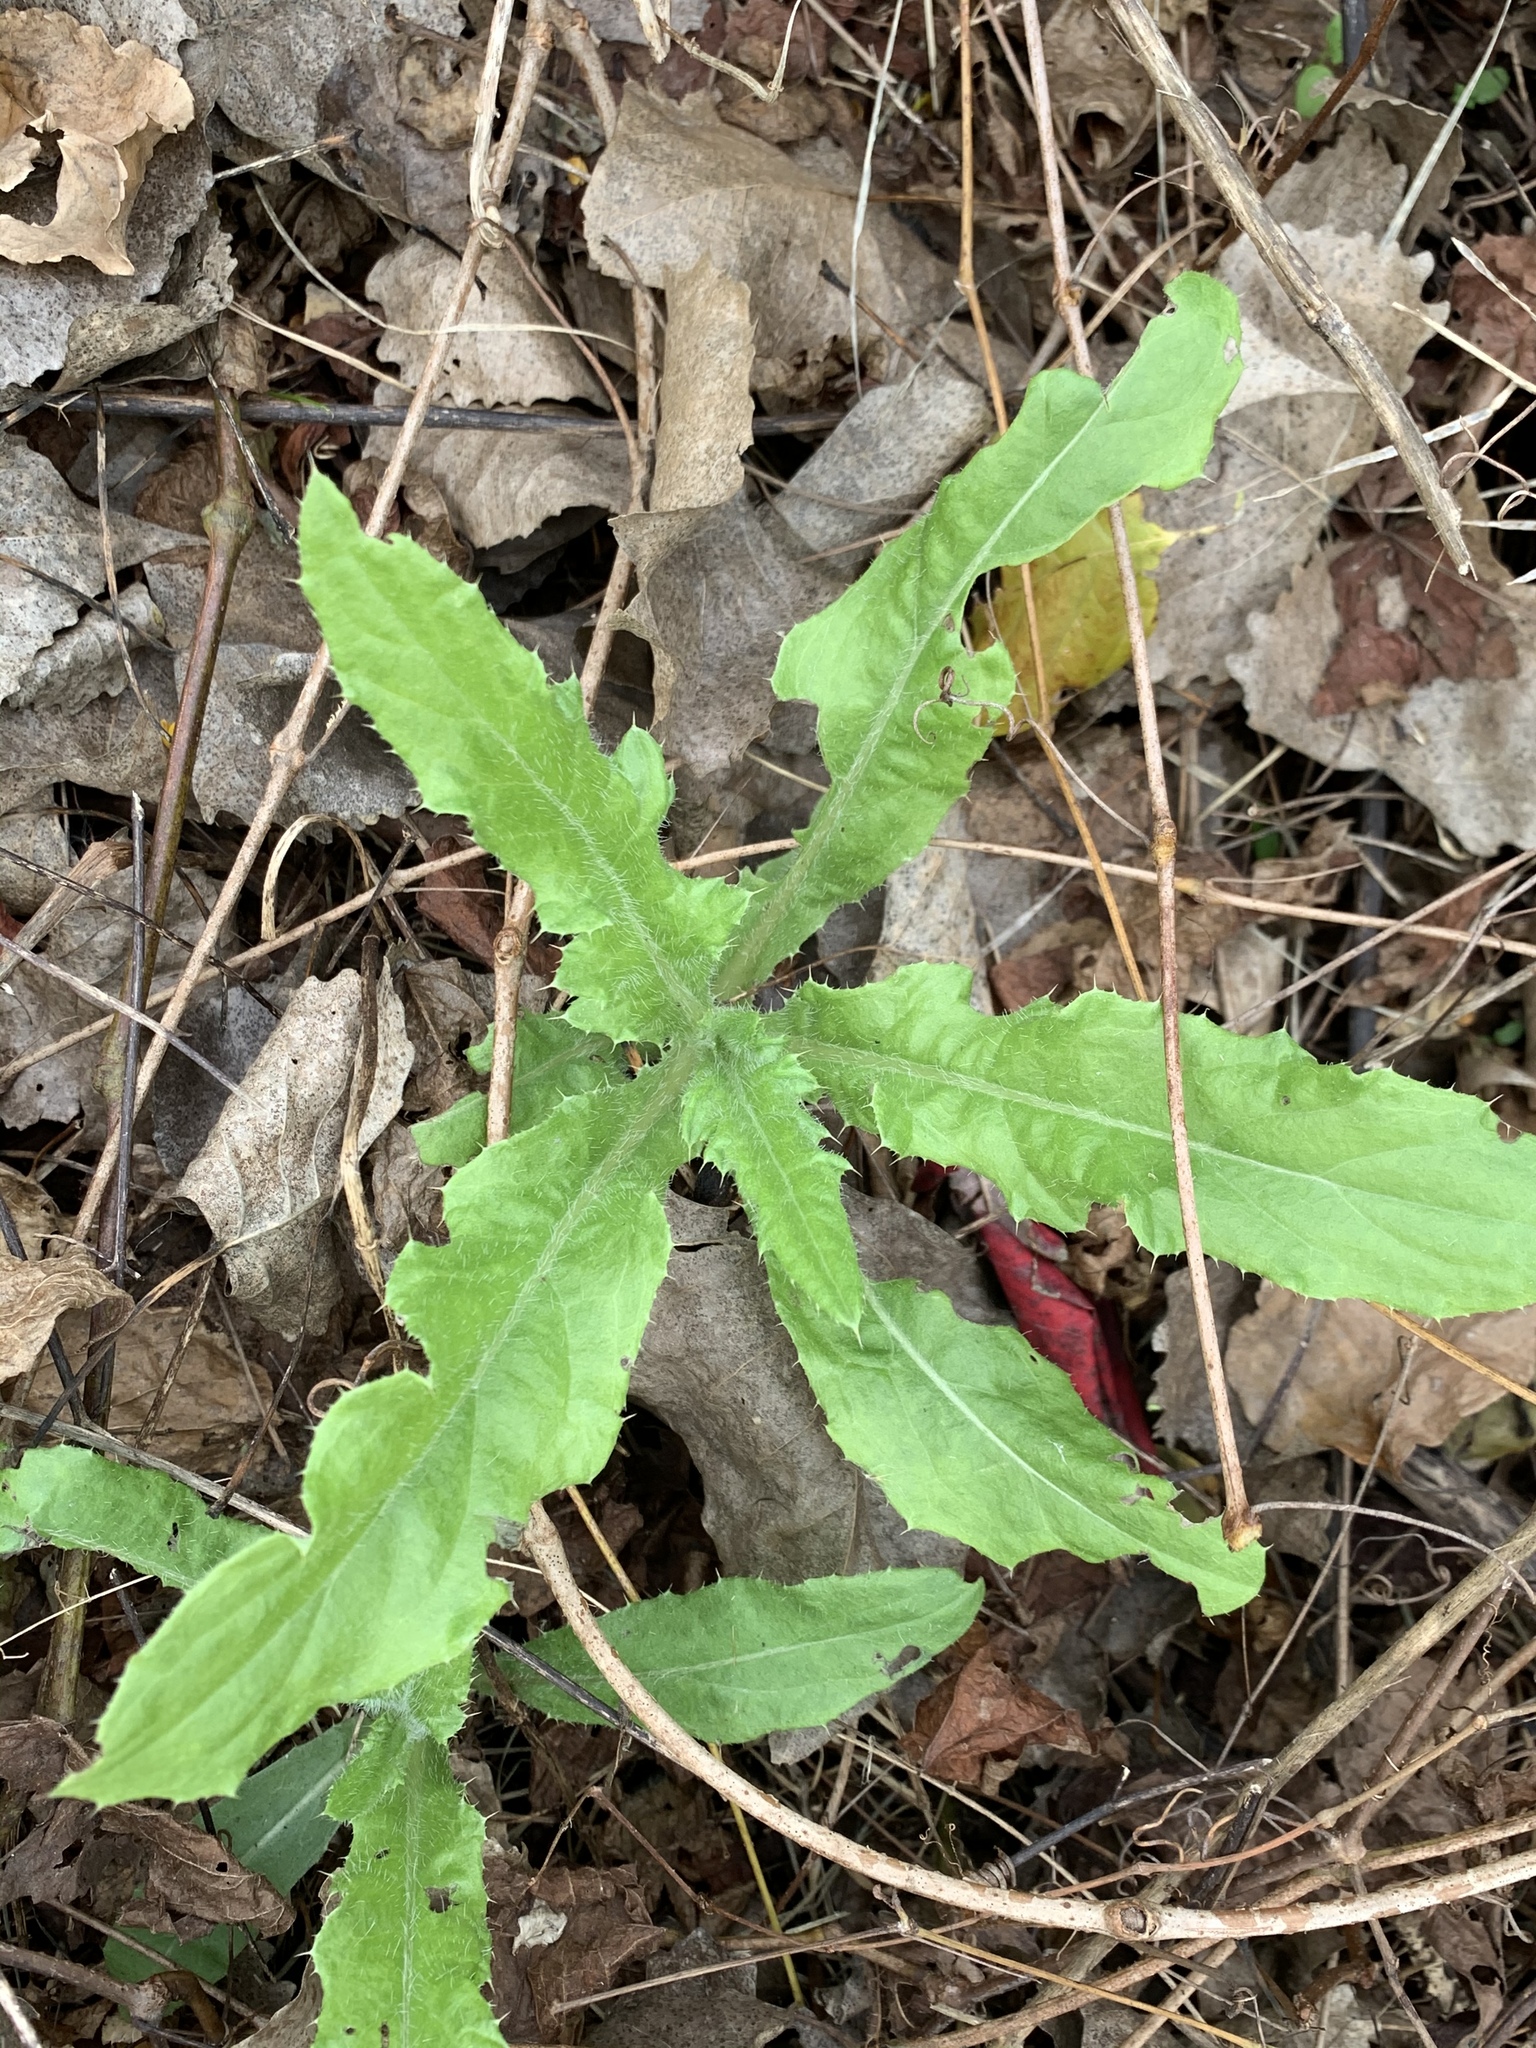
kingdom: Plantae
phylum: Tracheophyta
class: Magnoliopsida
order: Asterales
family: Asteraceae
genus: Cirsium
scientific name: Cirsium arvense
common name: Creeping thistle
